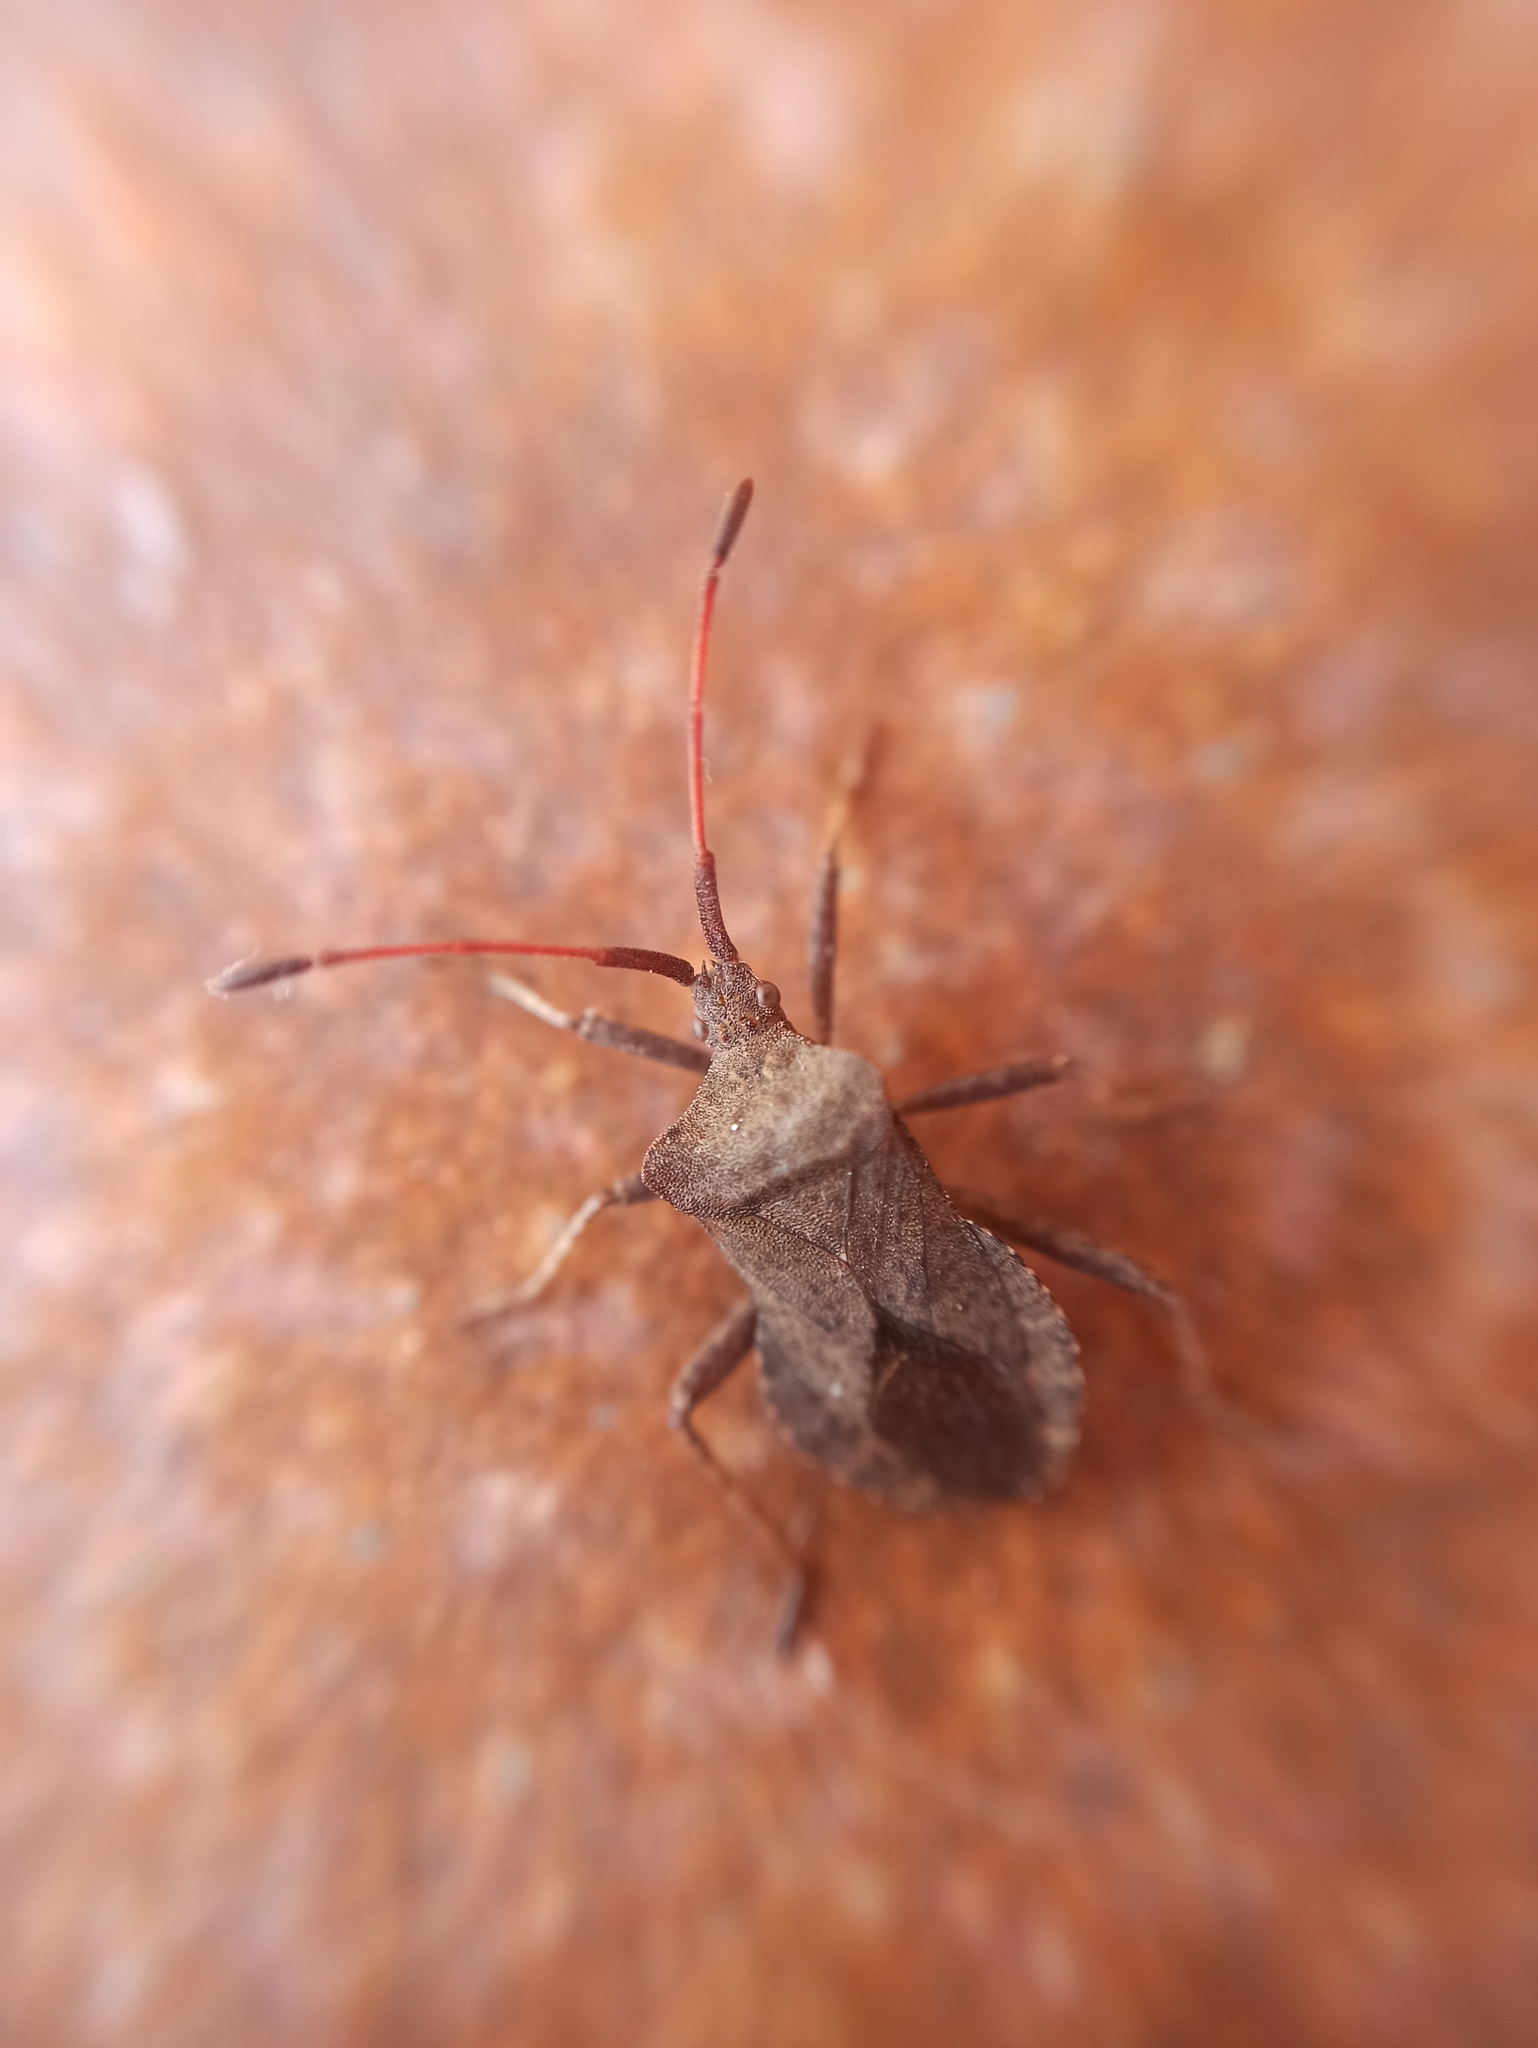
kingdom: Animalia
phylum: Arthropoda
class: Insecta
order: Hemiptera
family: Coreidae
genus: Coreus
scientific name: Coreus marginatus
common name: Dock bug
